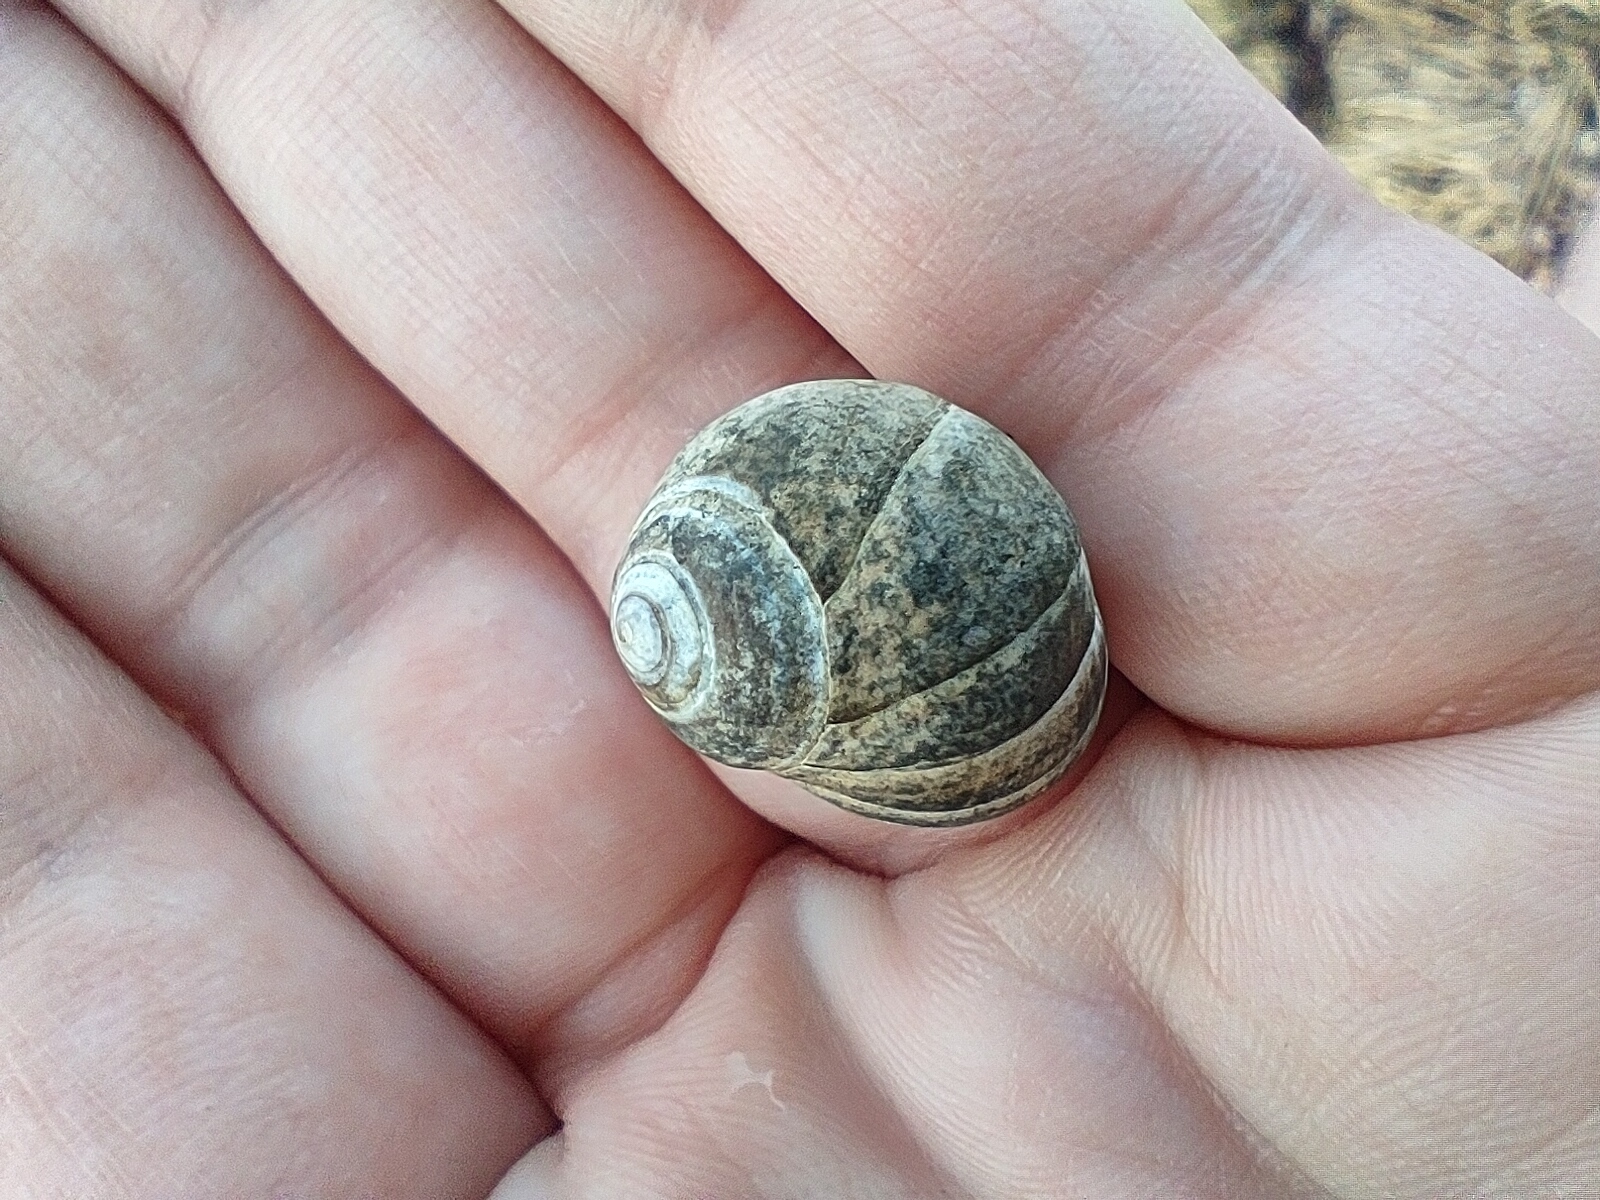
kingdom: Animalia
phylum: Mollusca
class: Gastropoda
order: Littorinimorpha
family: Littorinidae
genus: Littorina
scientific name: Littorina littorea
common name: Common periwinkle
